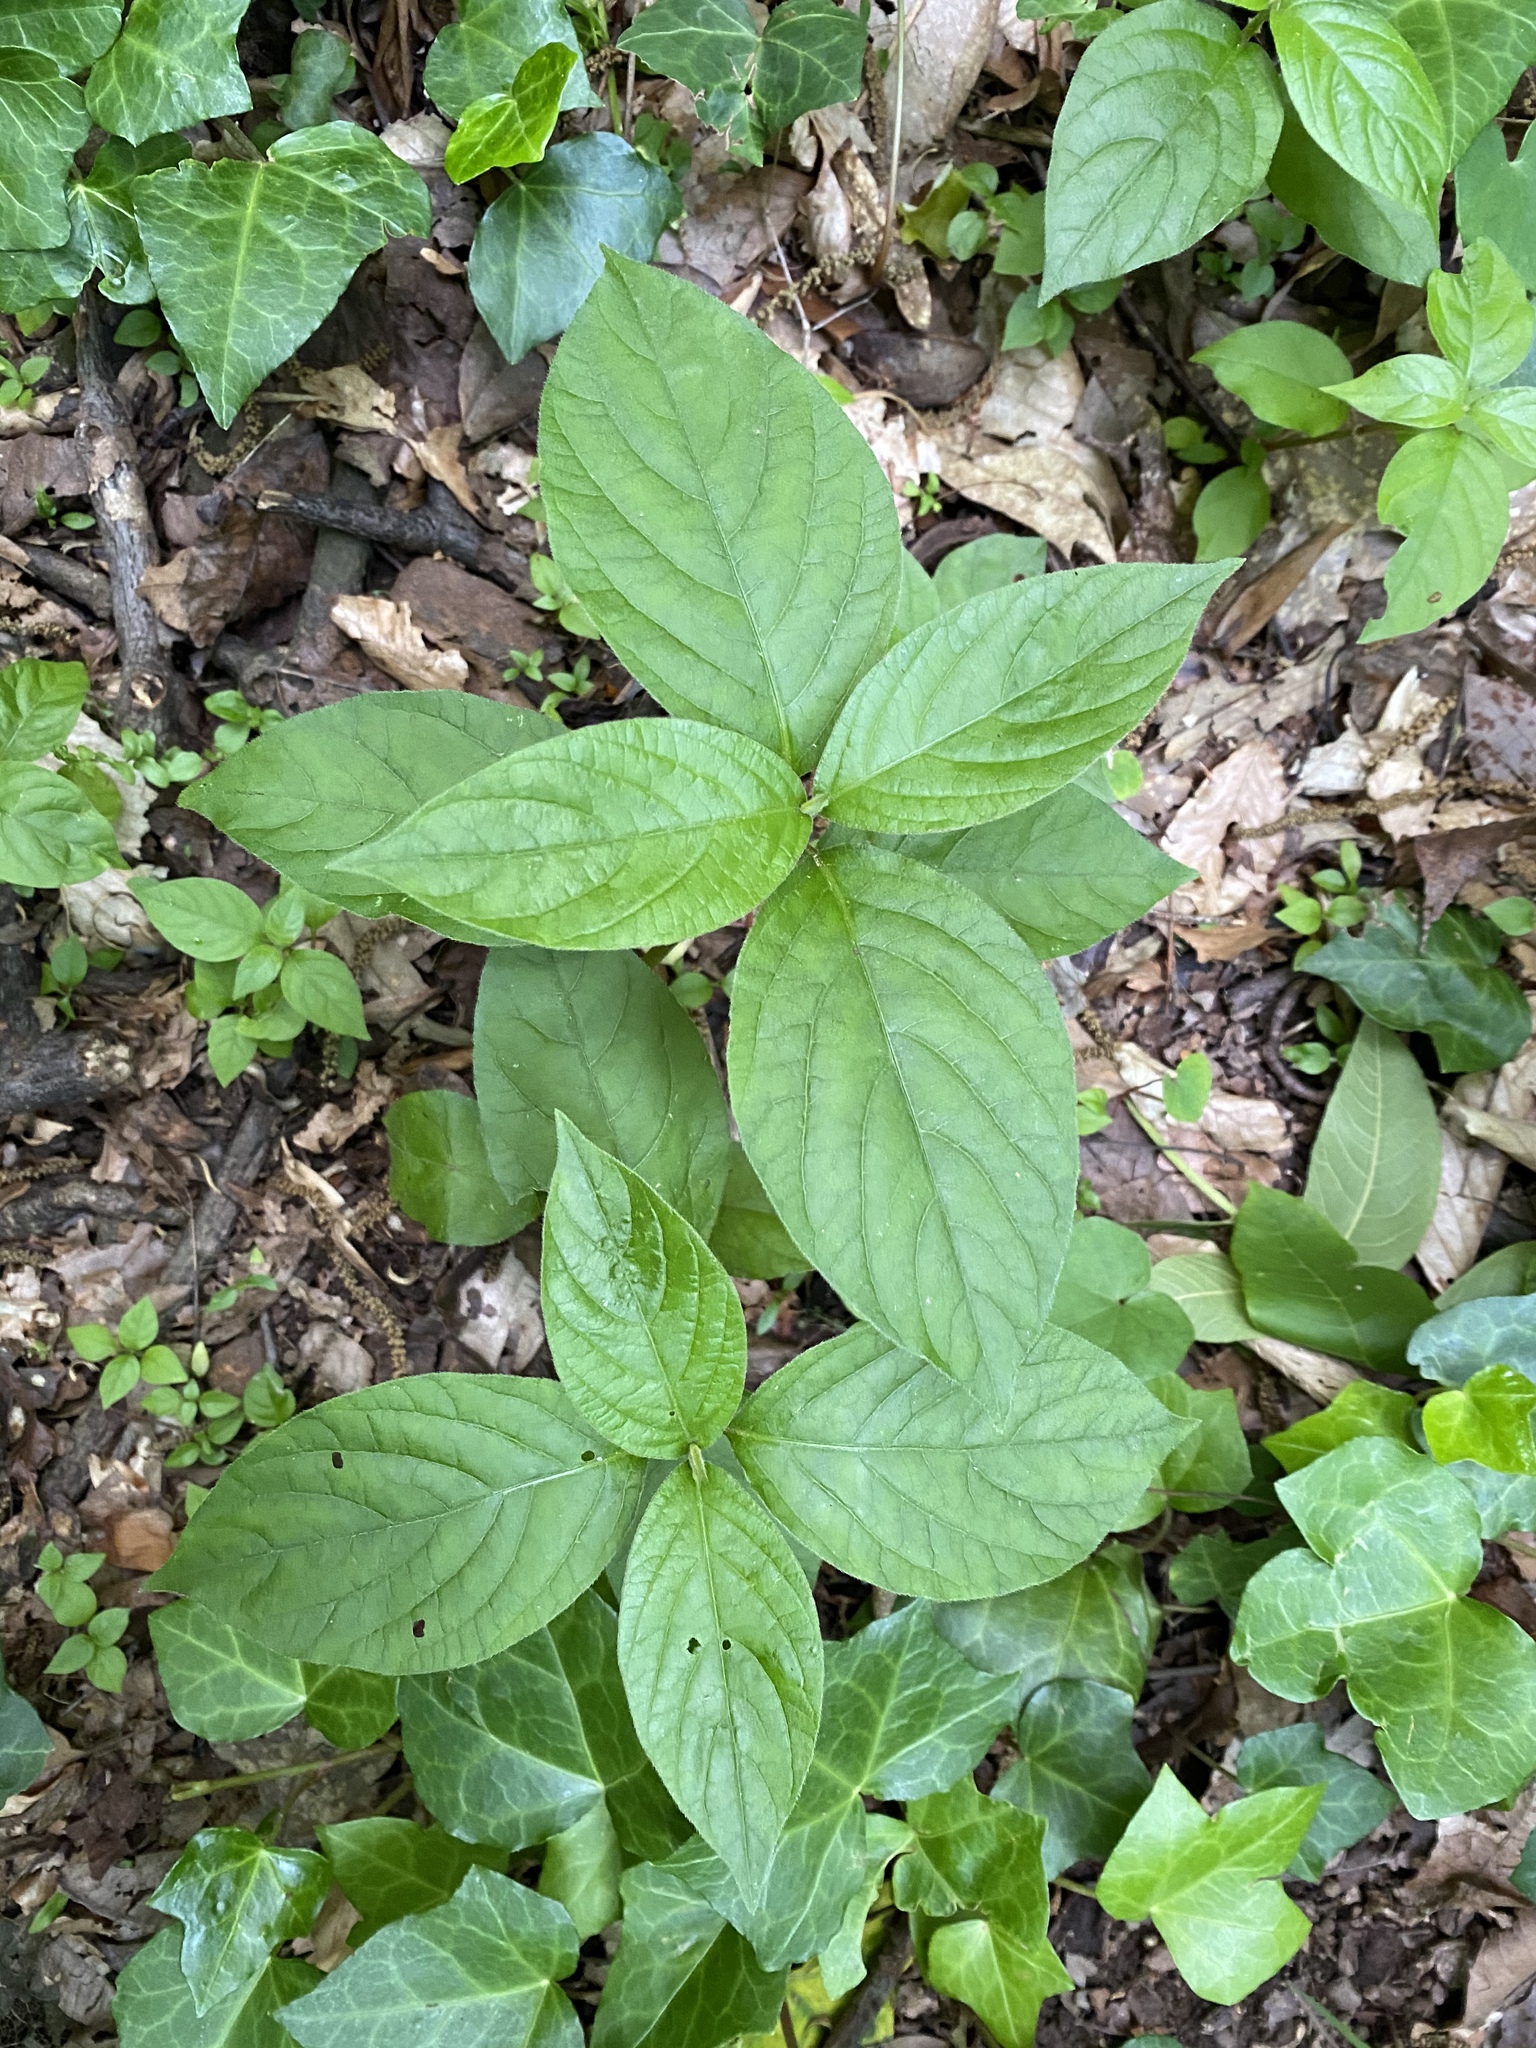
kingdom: Plantae
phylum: Tracheophyta
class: Magnoliopsida
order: Caryophyllales
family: Amaranthaceae
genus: Achyranthes
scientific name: Achyranthes bidentata
